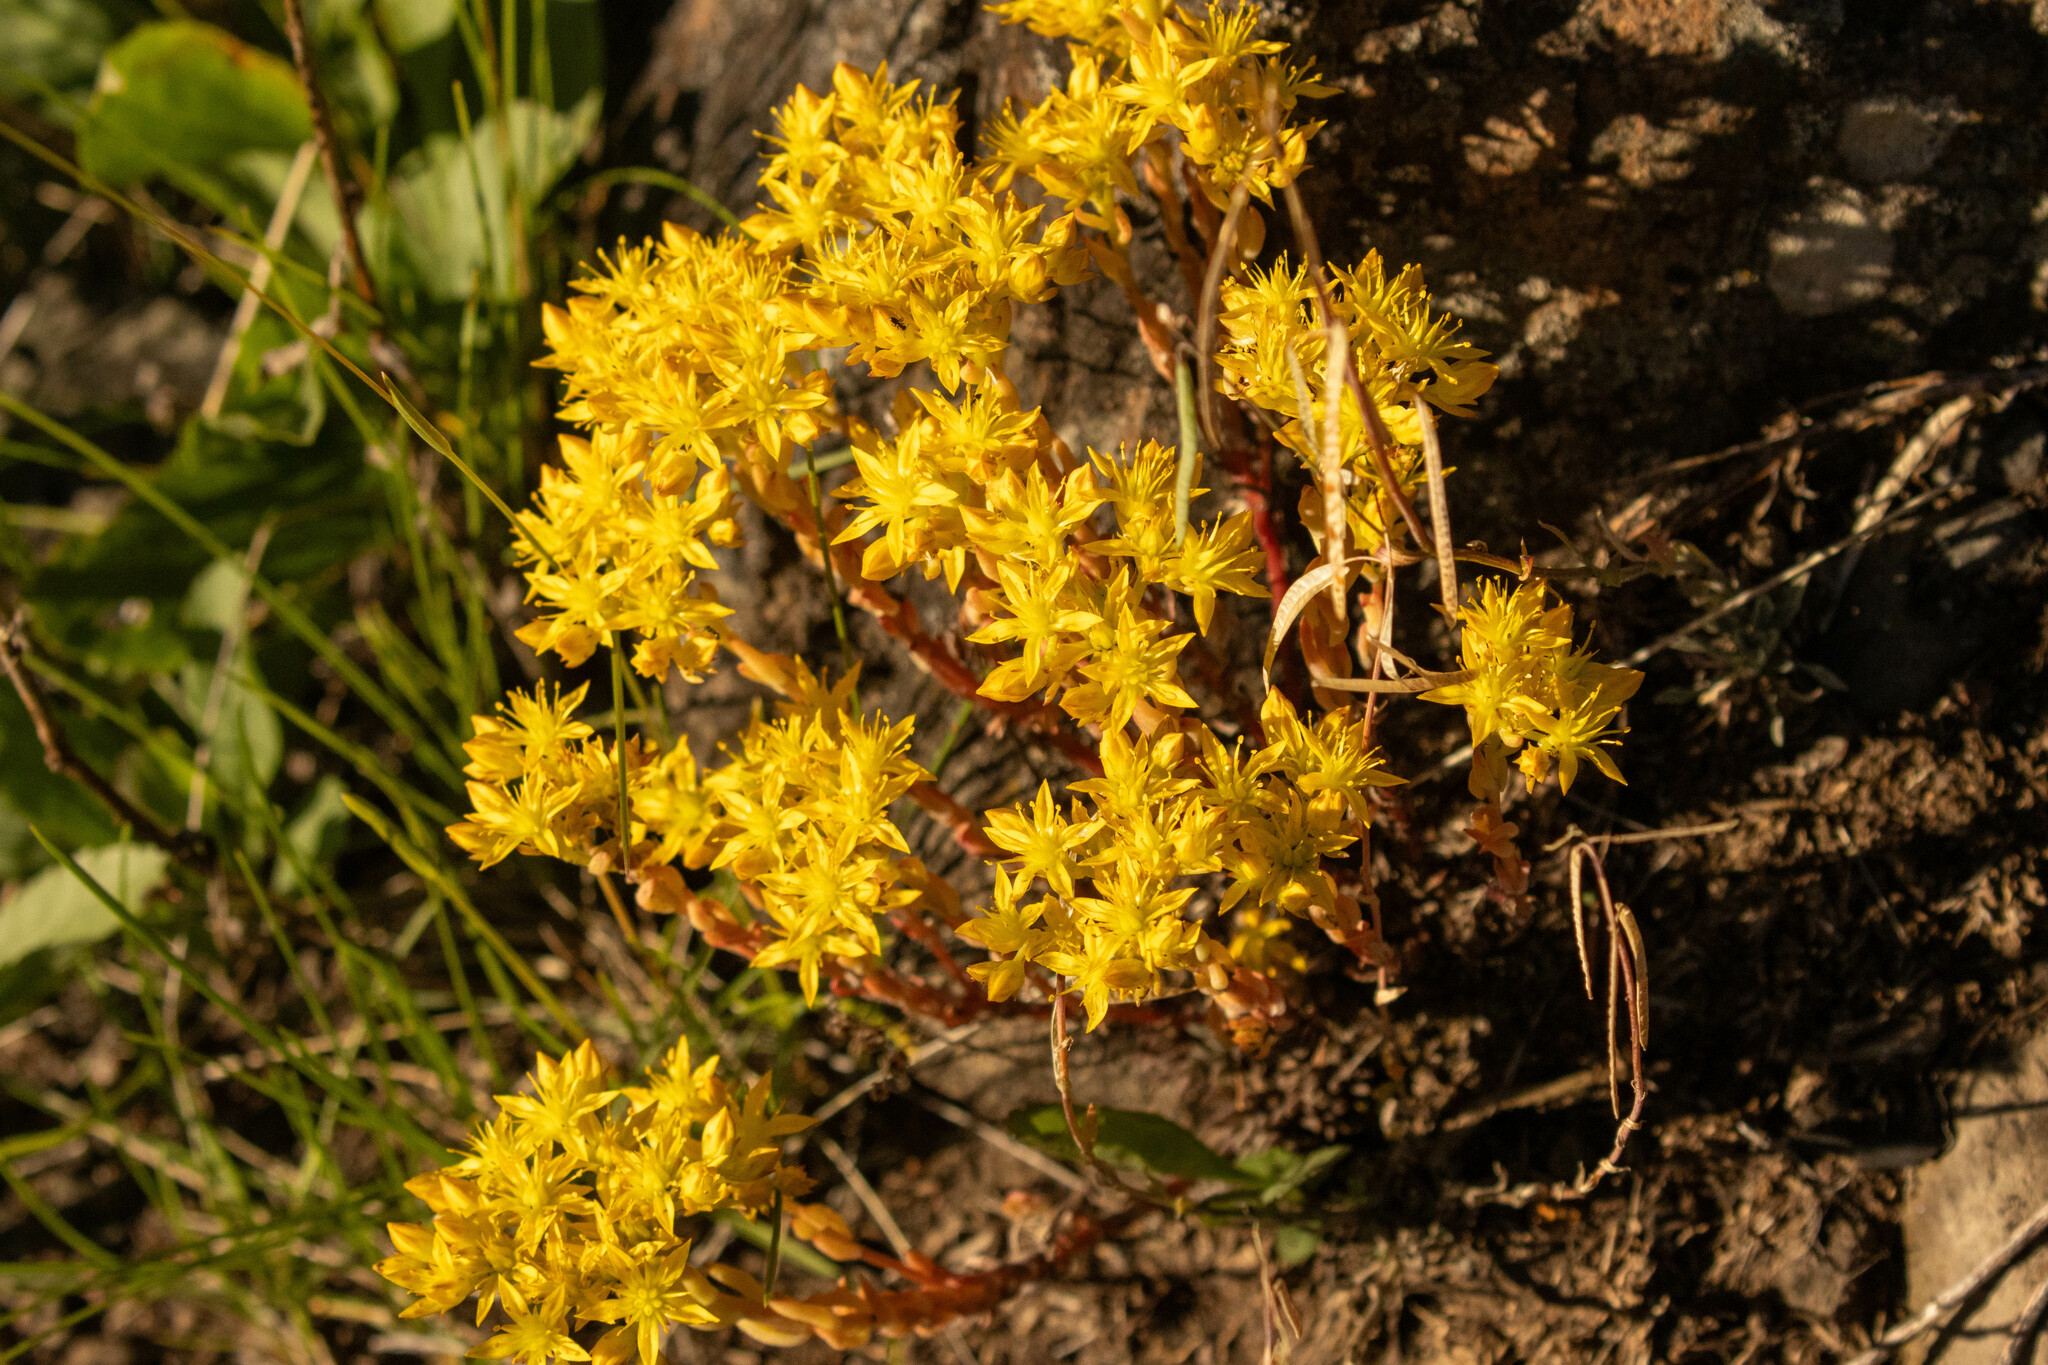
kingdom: Plantae
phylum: Tracheophyta
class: Magnoliopsida
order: Saxifragales
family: Crassulaceae
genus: Sedum
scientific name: Sedum lanceolatum
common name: Common stonecrop
